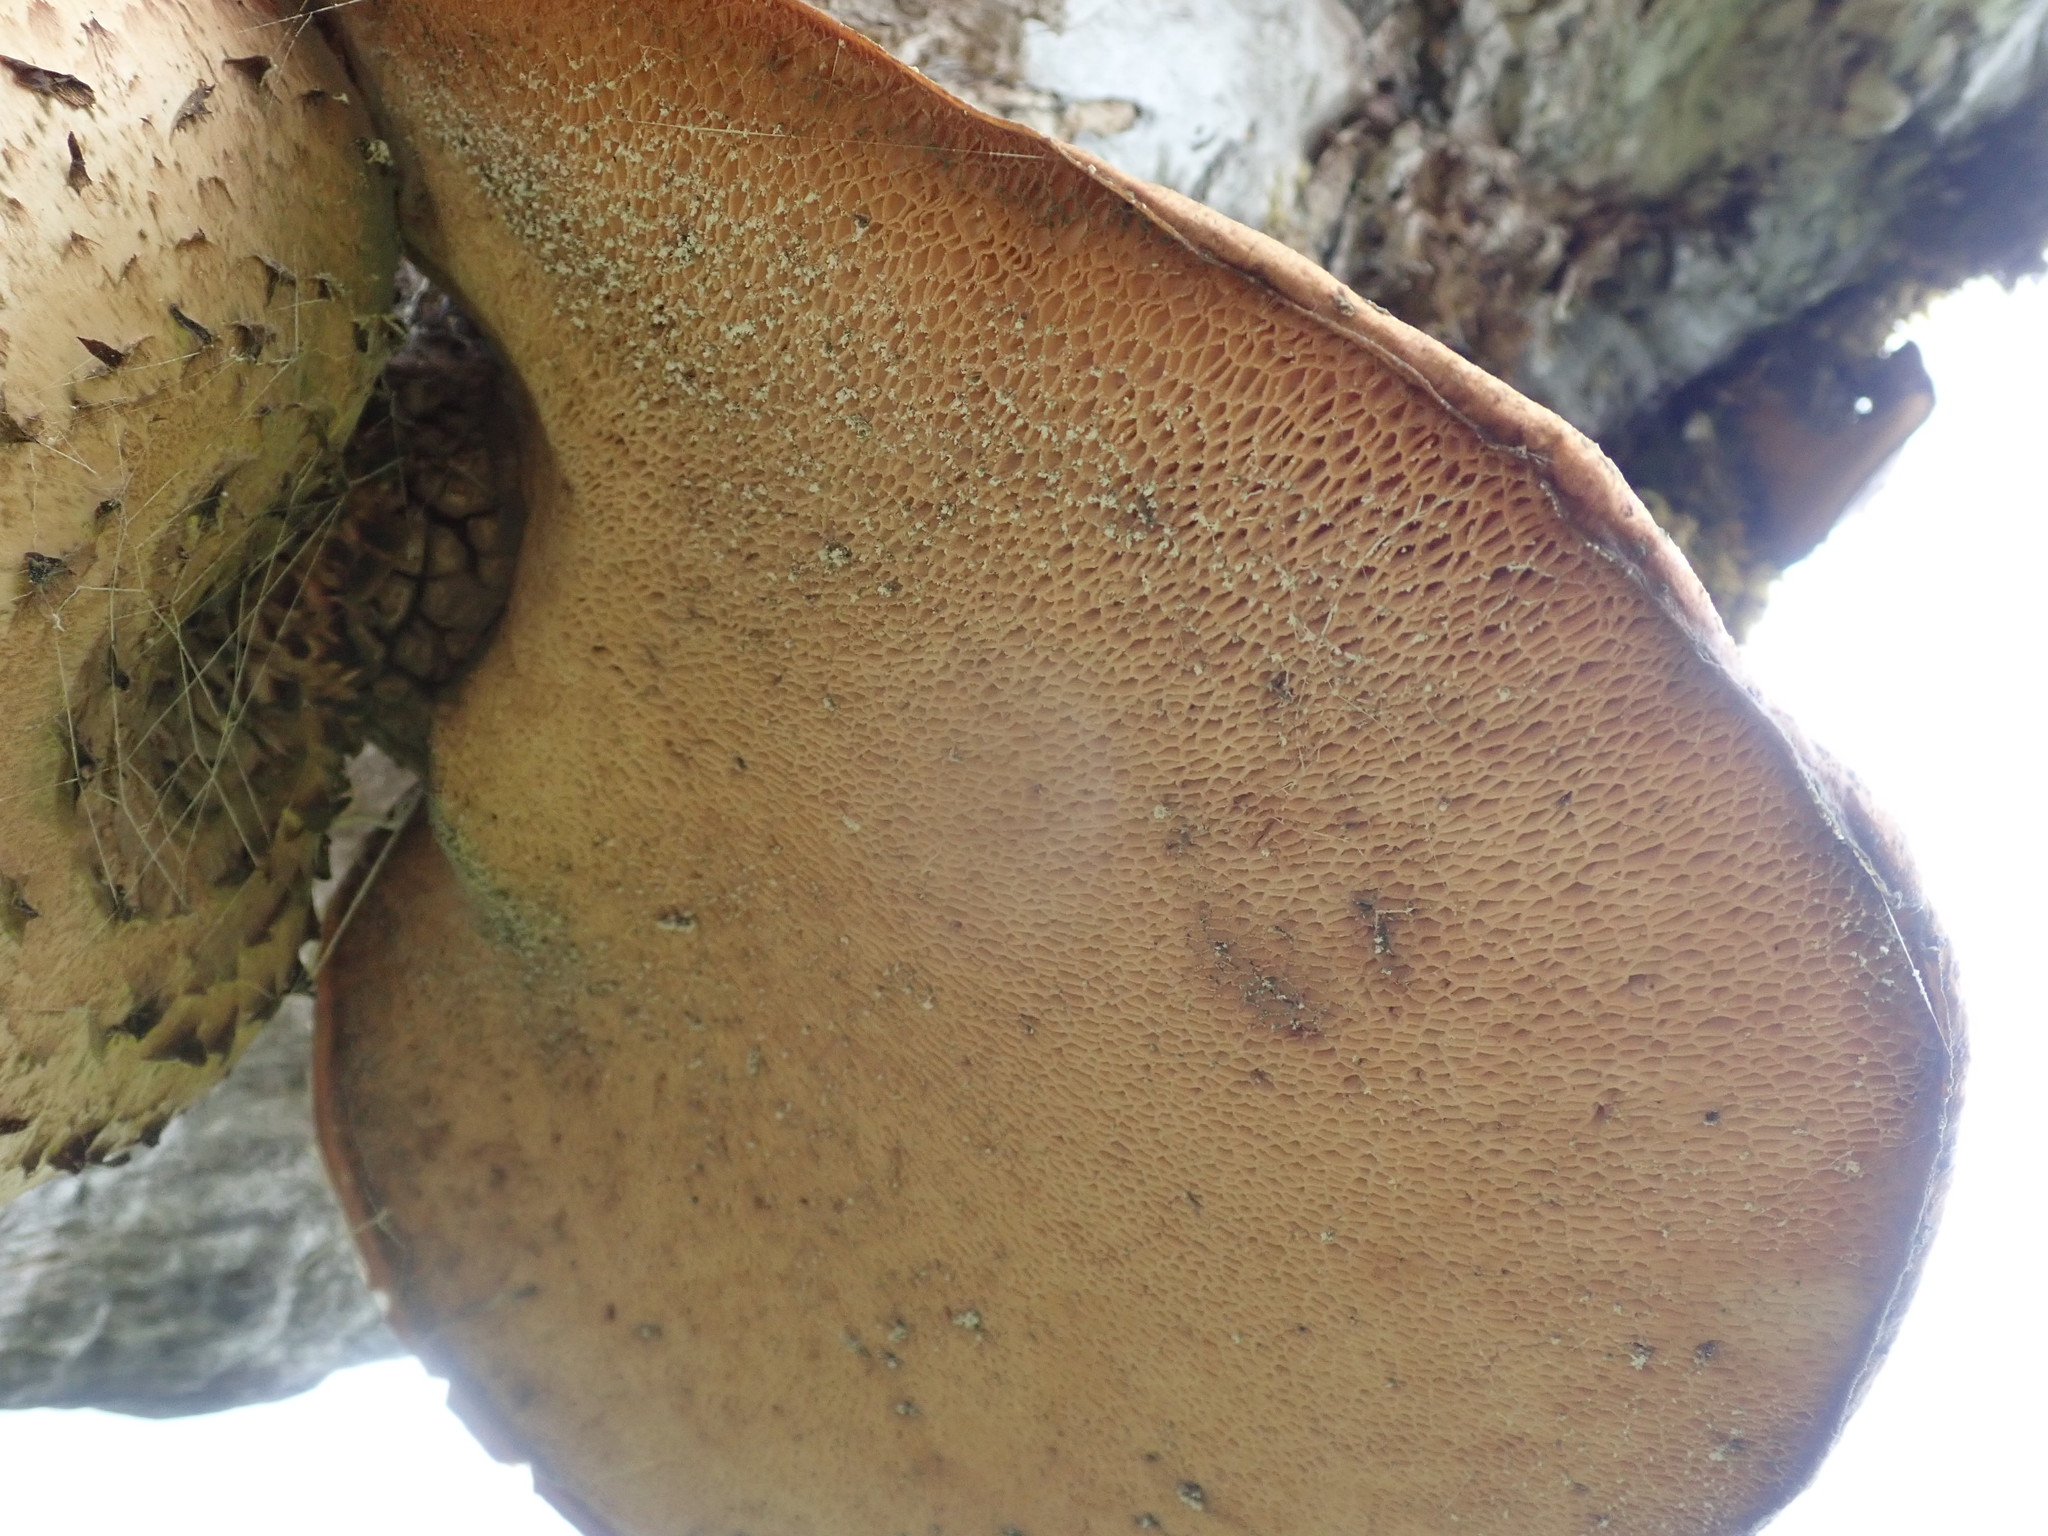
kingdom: Fungi
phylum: Basidiomycota
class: Agaricomycetes
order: Polyporales
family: Polyporaceae
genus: Cerioporus
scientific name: Cerioporus squamosus
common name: Dryad's saddle
